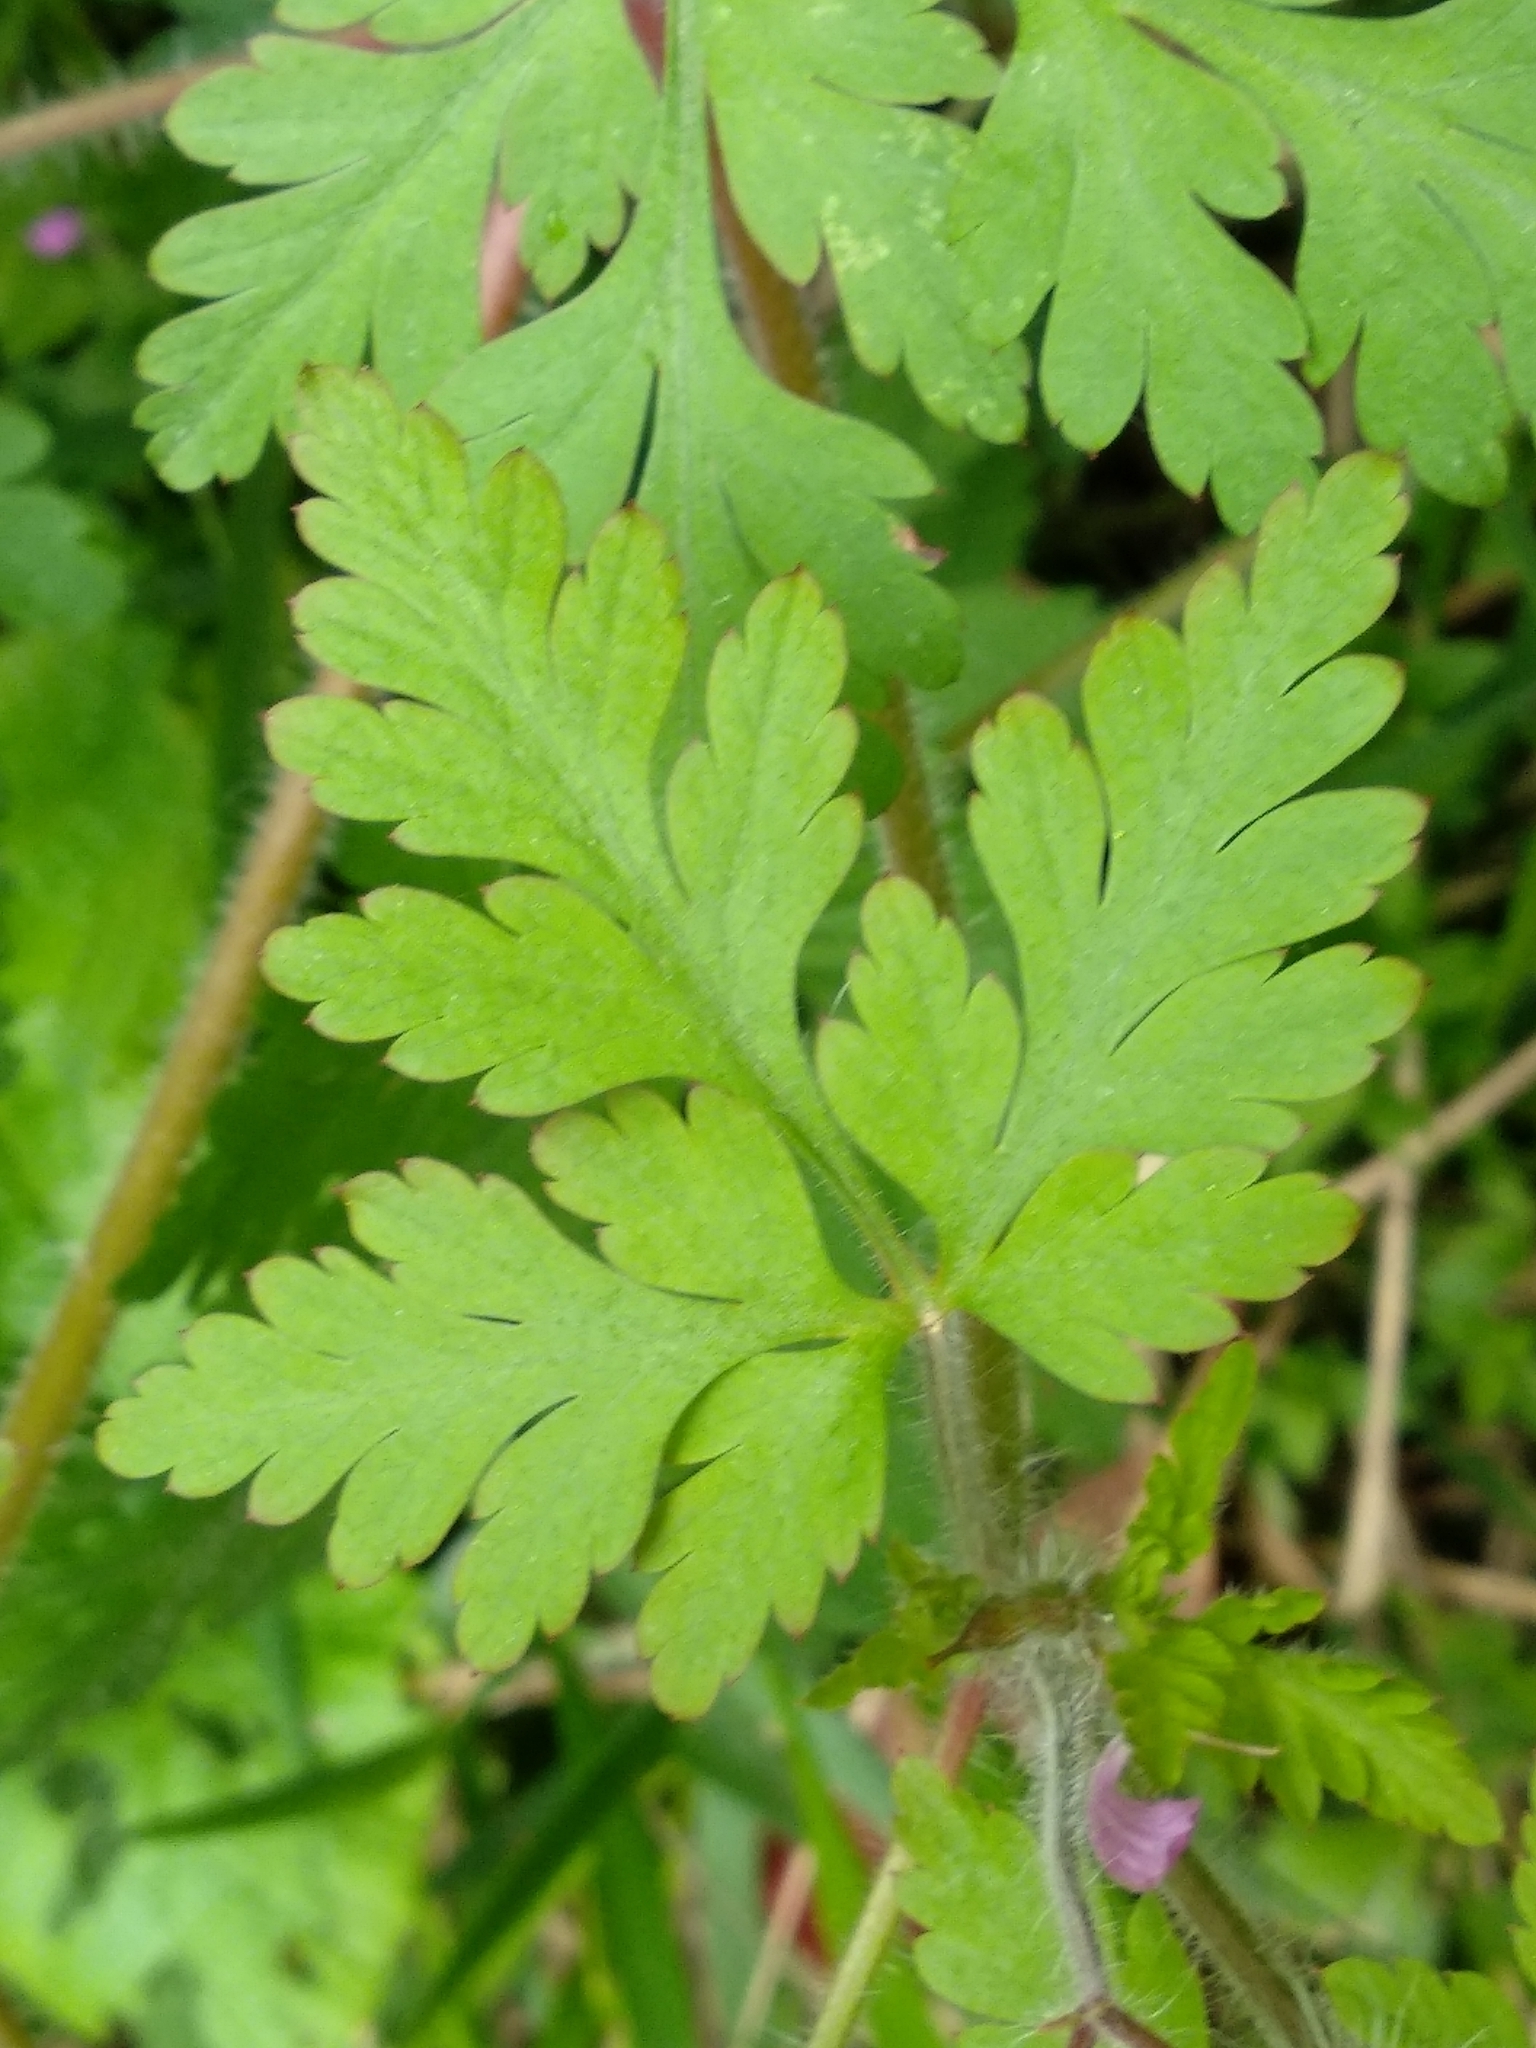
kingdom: Plantae
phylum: Tracheophyta
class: Magnoliopsida
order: Geraniales
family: Geraniaceae
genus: Geranium
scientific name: Geranium robertianum
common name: Herb-robert
